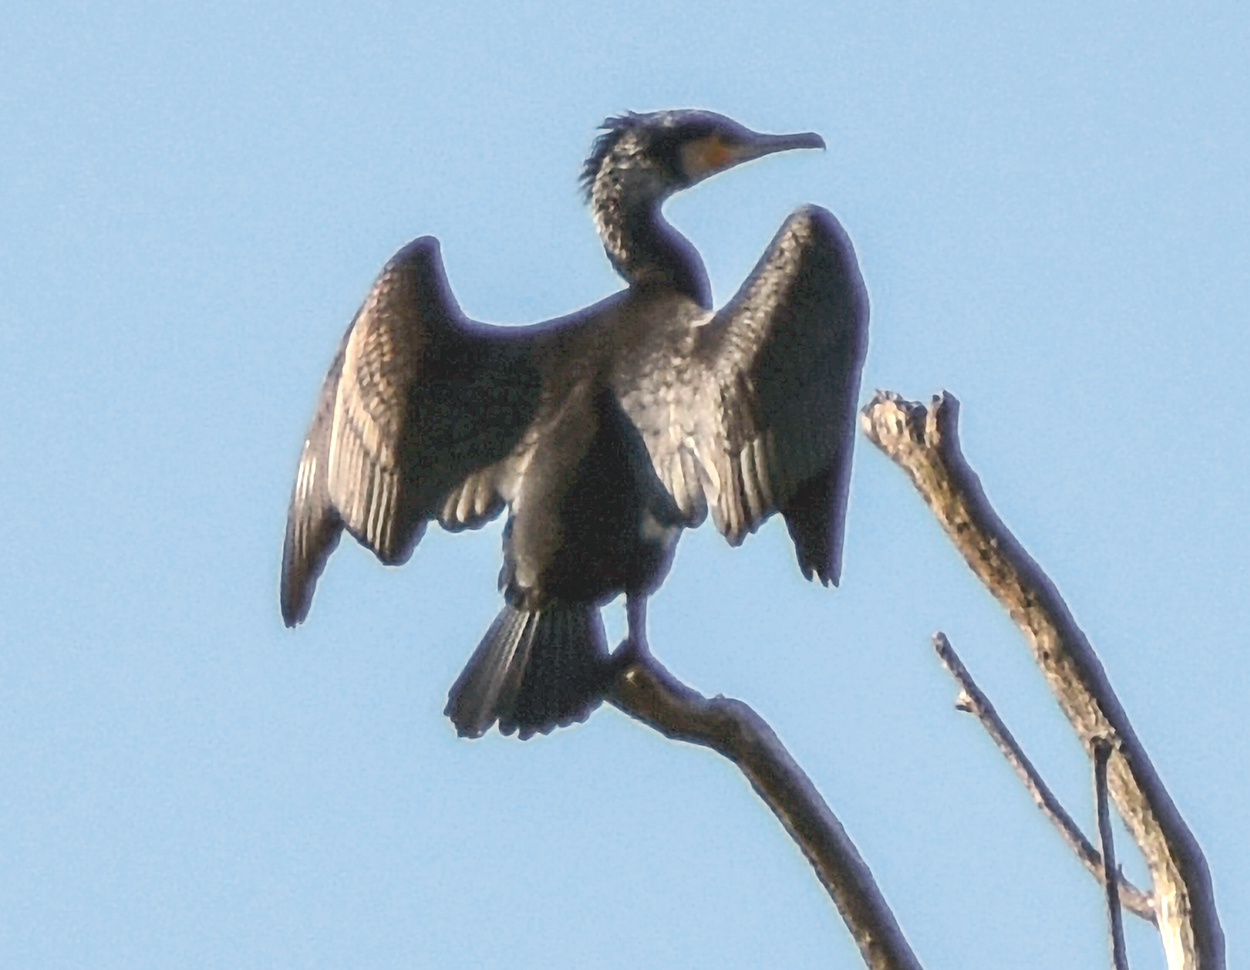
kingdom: Animalia
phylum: Chordata
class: Aves
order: Suliformes
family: Phalacrocoracidae
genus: Phalacrocorax
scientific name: Phalacrocorax carbo
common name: Great cormorant
